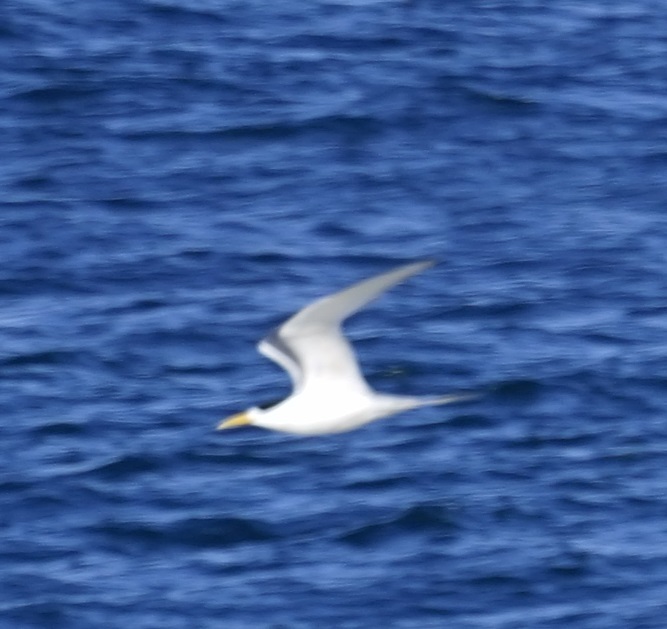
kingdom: Animalia
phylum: Chordata
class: Aves
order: Charadriiformes
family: Laridae
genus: Thalasseus
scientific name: Thalasseus bergii
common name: Greater crested tern
